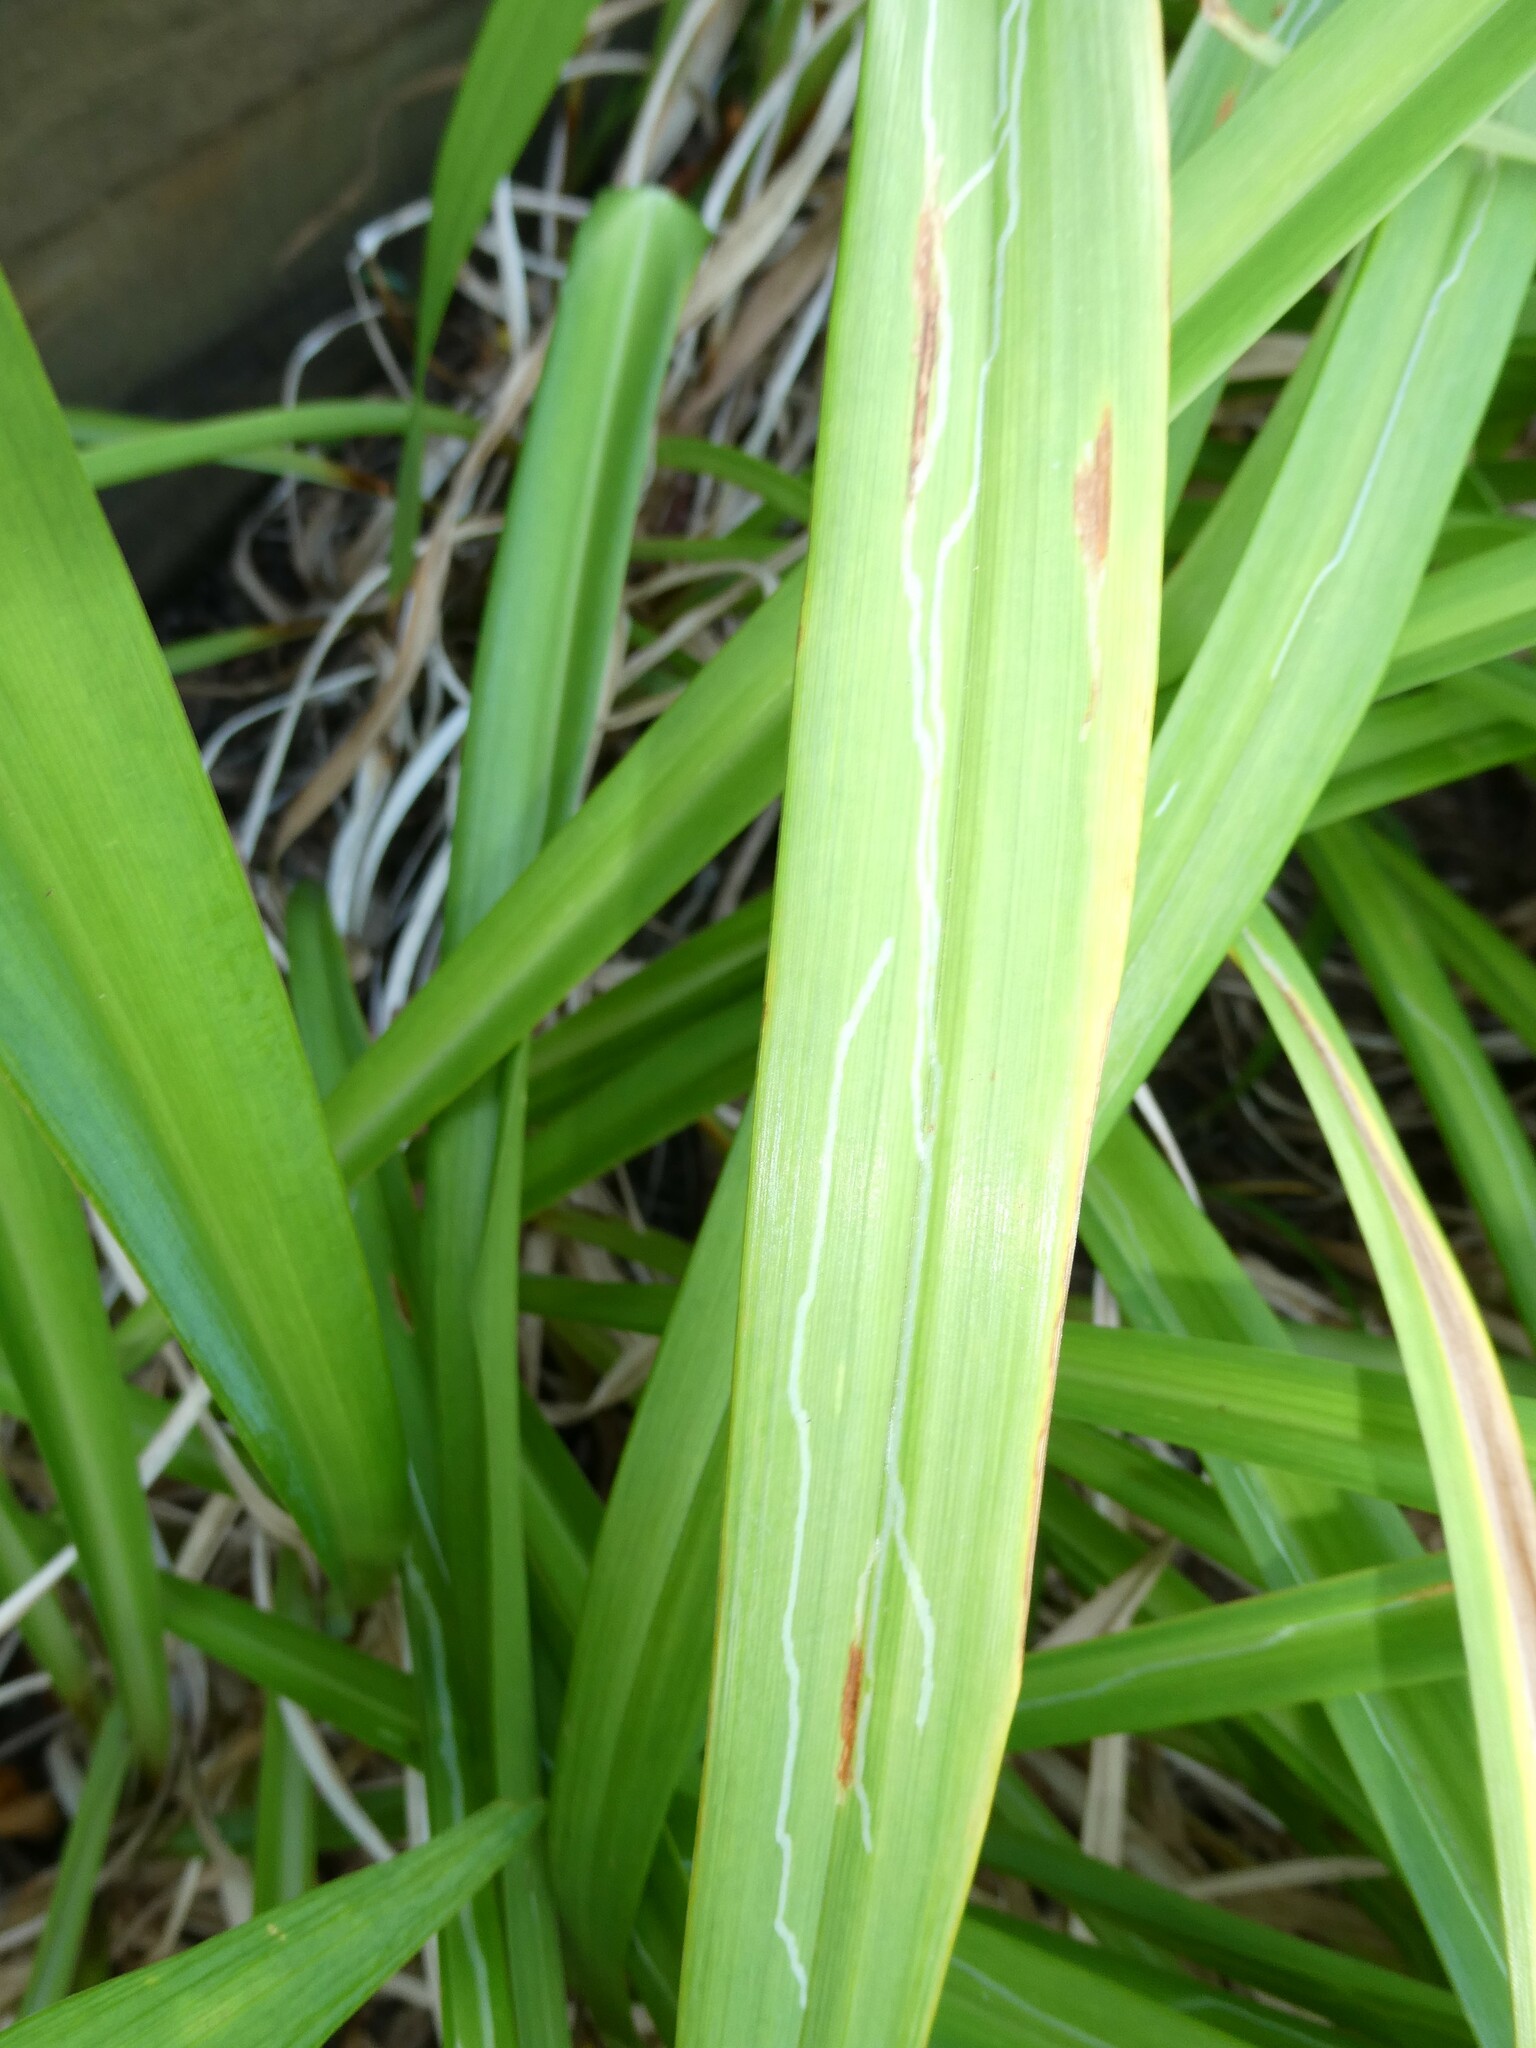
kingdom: Animalia
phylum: Arthropoda
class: Insecta
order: Diptera
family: Agromyzidae
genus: Ophiomyia
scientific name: Ophiomyia kwansonis
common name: Daylily leafminer
